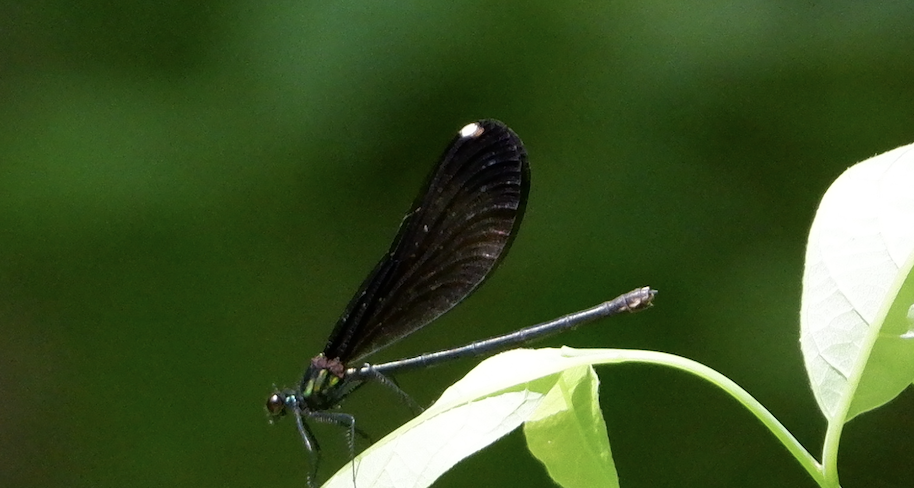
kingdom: Animalia
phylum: Arthropoda
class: Insecta
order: Odonata
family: Calopterygidae
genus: Calopteryx
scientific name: Calopteryx maculata
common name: Ebony jewelwing
